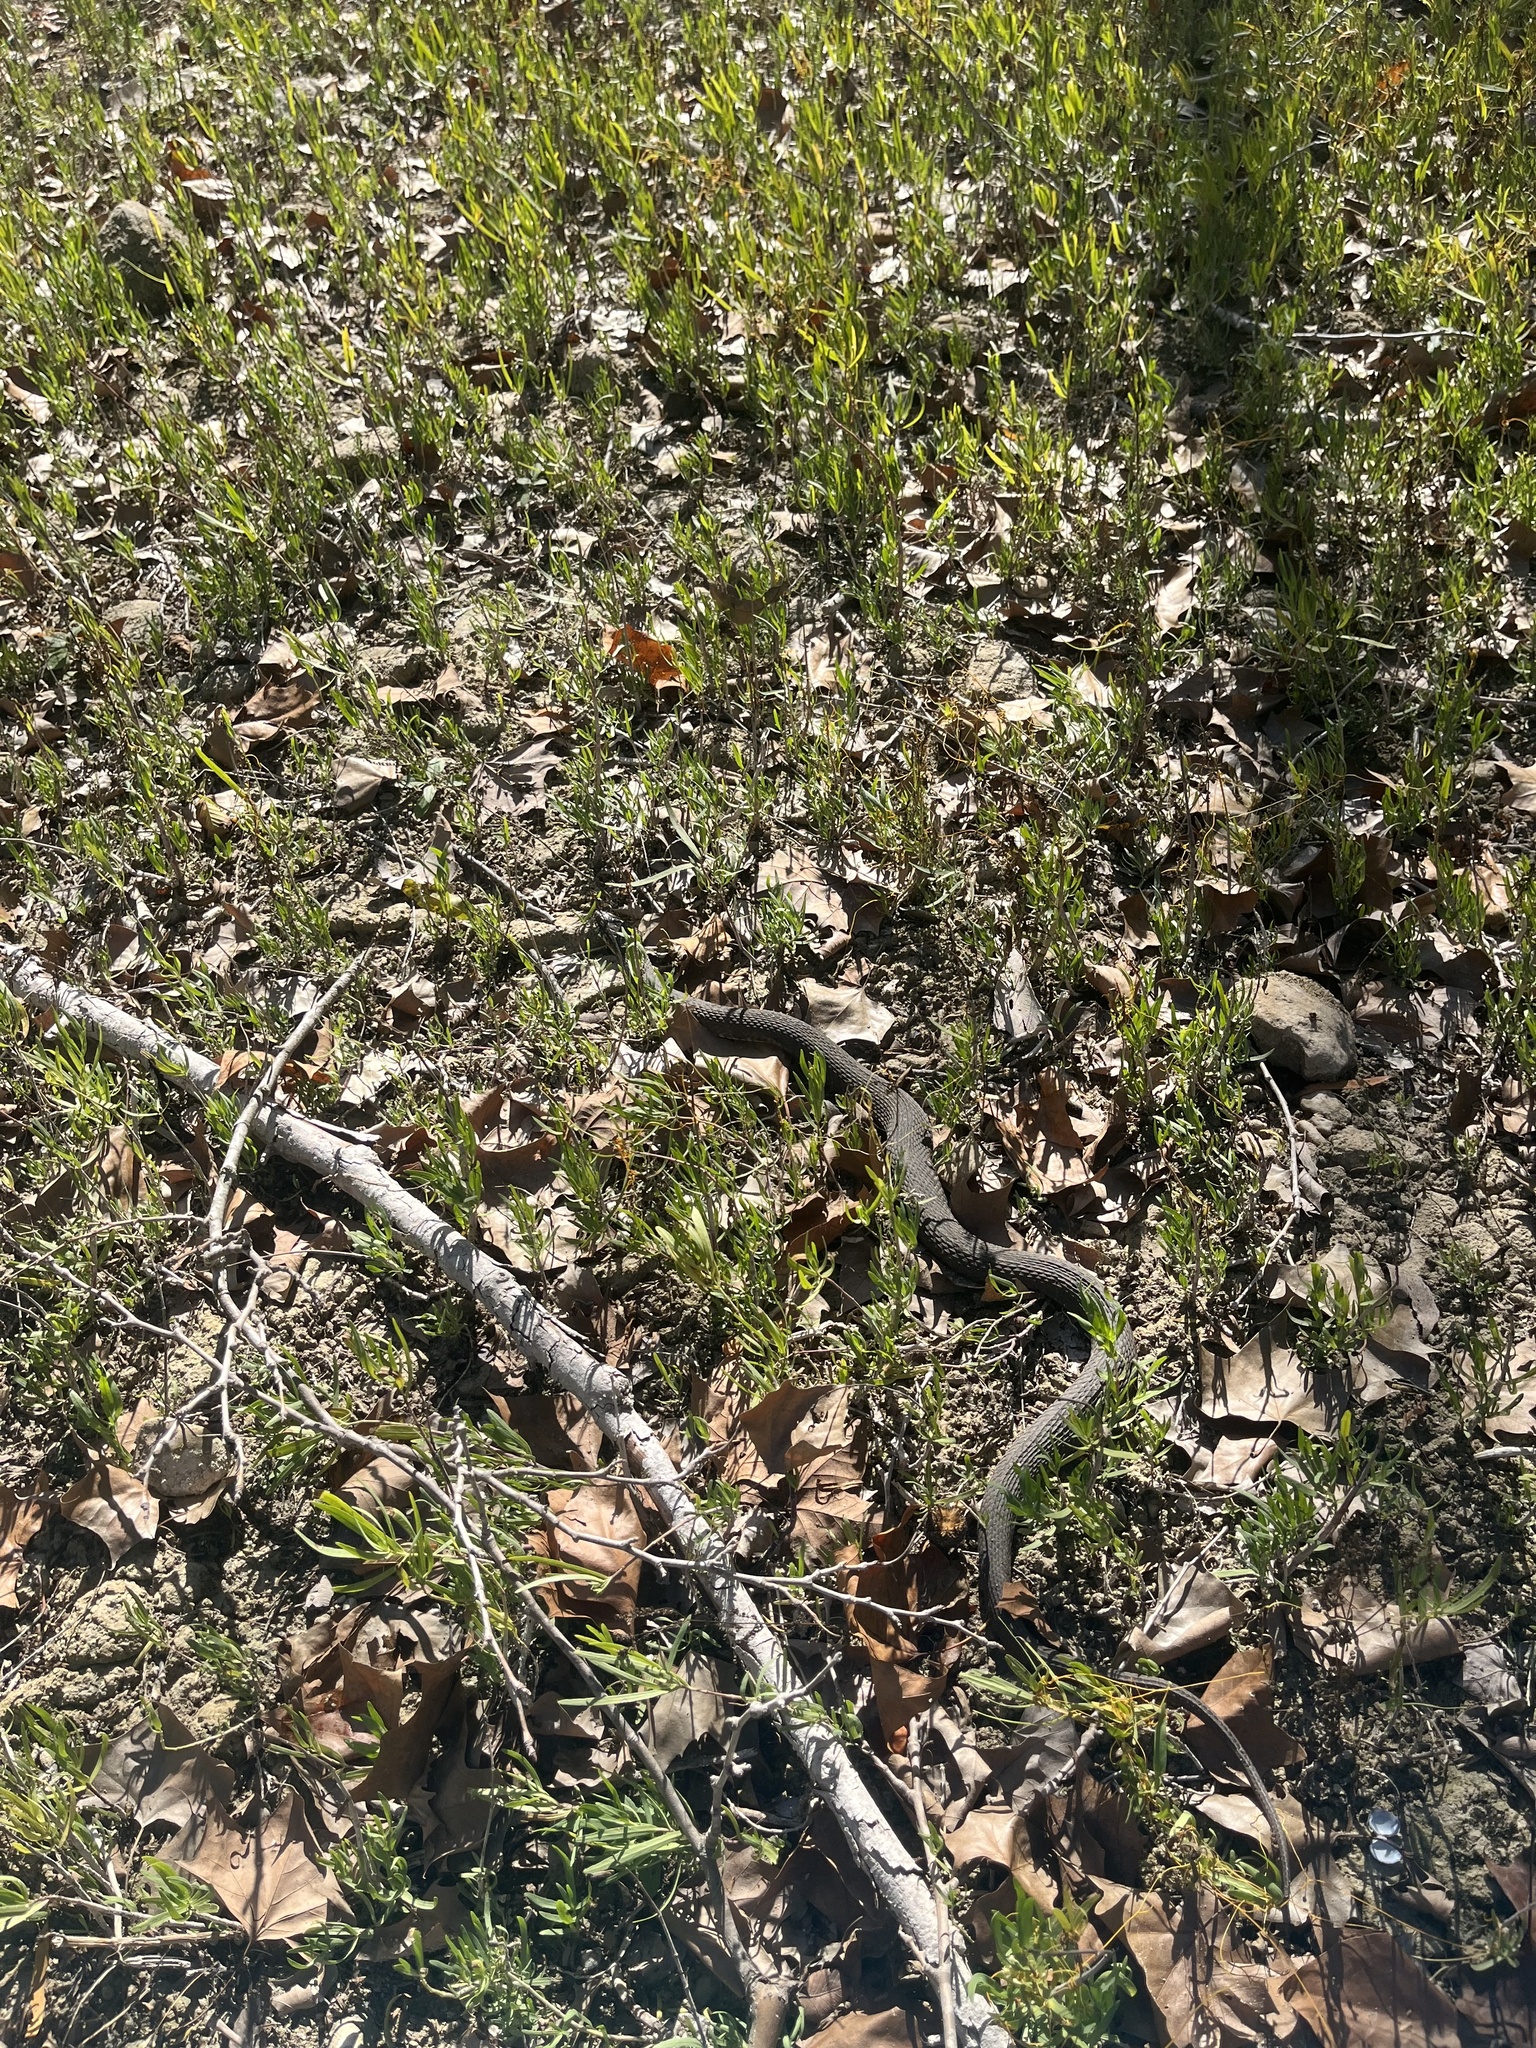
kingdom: Animalia
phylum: Chordata
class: Squamata
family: Colubridae
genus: Nerodia
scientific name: Nerodia erythrogaster
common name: Plainbelly water snake
